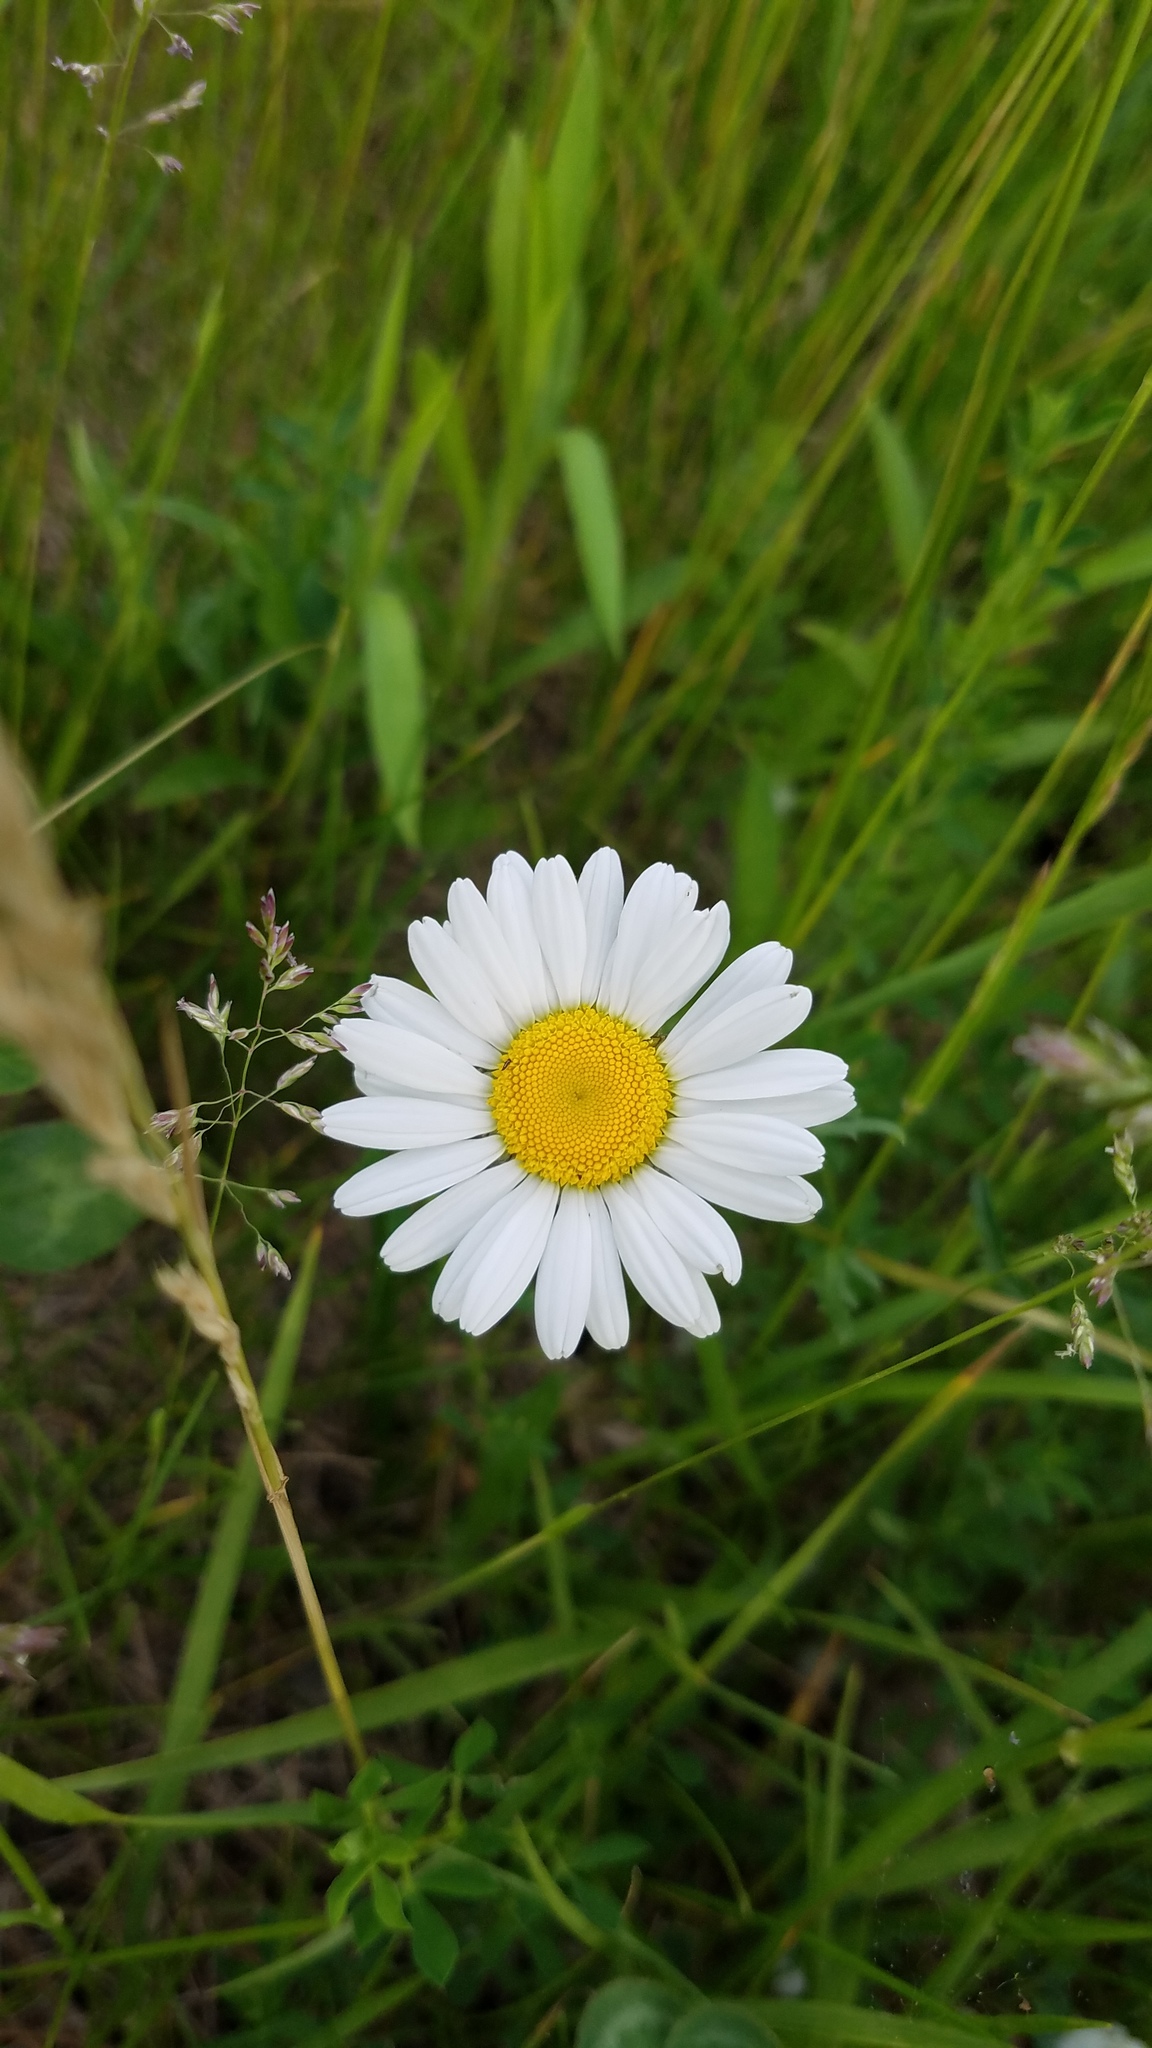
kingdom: Plantae
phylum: Tracheophyta
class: Magnoliopsida
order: Asterales
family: Asteraceae
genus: Leucanthemum
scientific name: Leucanthemum vulgare
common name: Oxeye daisy
